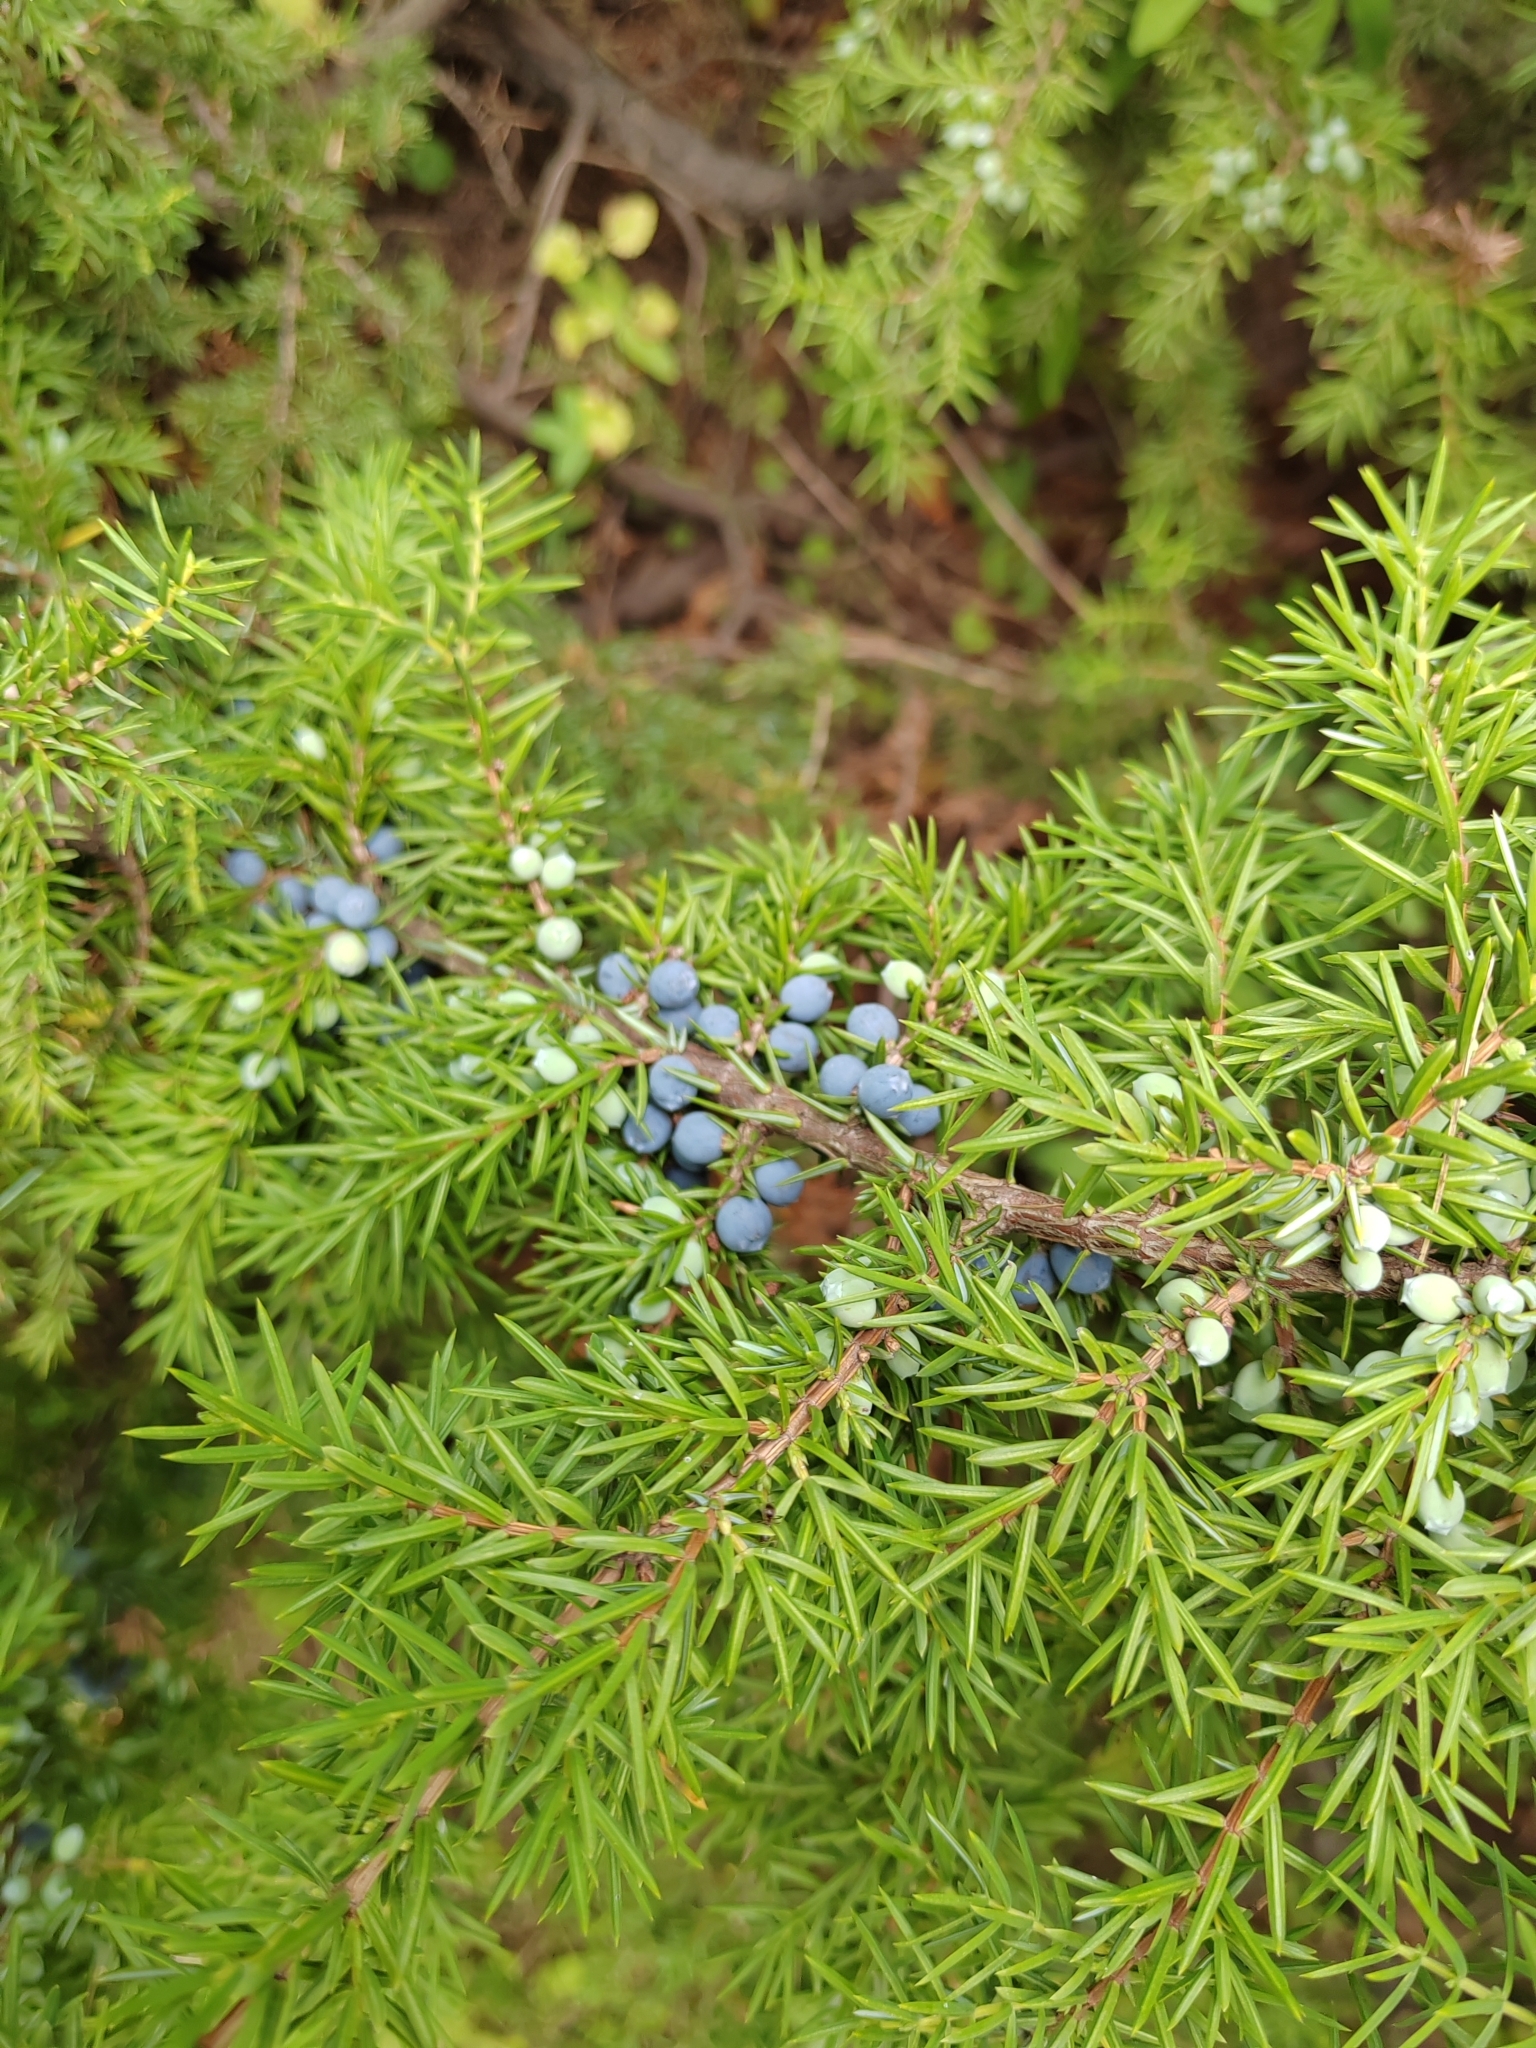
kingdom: Plantae
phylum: Tracheophyta
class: Pinopsida
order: Pinales
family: Cupressaceae
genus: Juniperus
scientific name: Juniperus communis
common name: Common juniper
